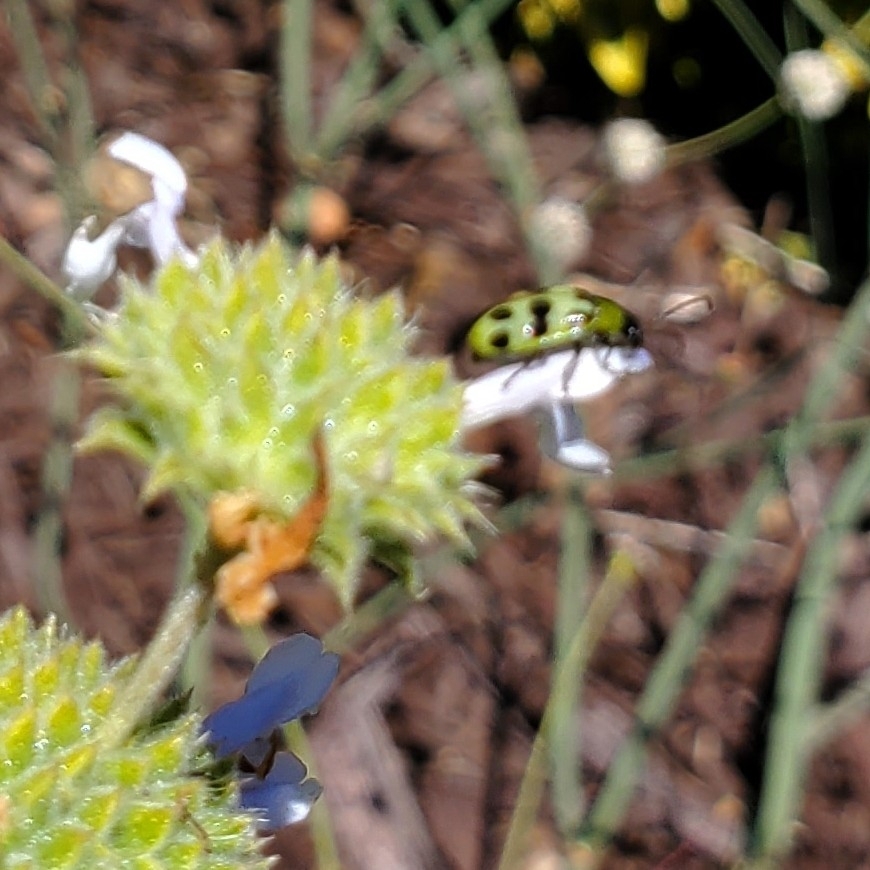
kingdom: Animalia
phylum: Arthropoda
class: Insecta
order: Coleoptera
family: Chrysomelidae
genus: Diabrotica
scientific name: Diabrotica undecimpunctata
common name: Spotted cucumber beetle
